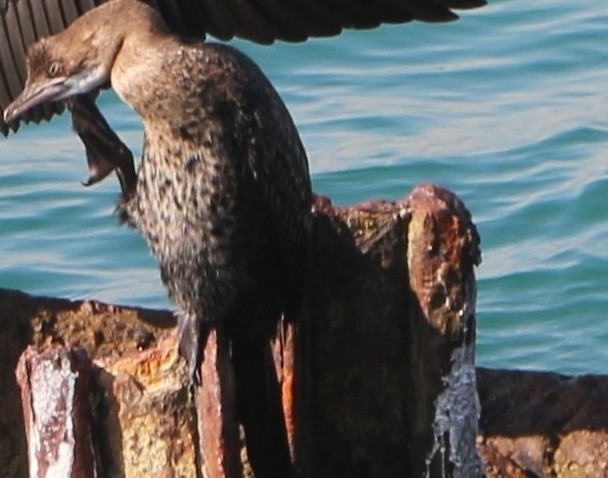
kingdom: Animalia
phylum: Chordata
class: Aves
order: Suliformes
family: Phalacrocoracidae
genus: Microcarbo
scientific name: Microcarbo pygmaeus
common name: Pygmy cormorant
